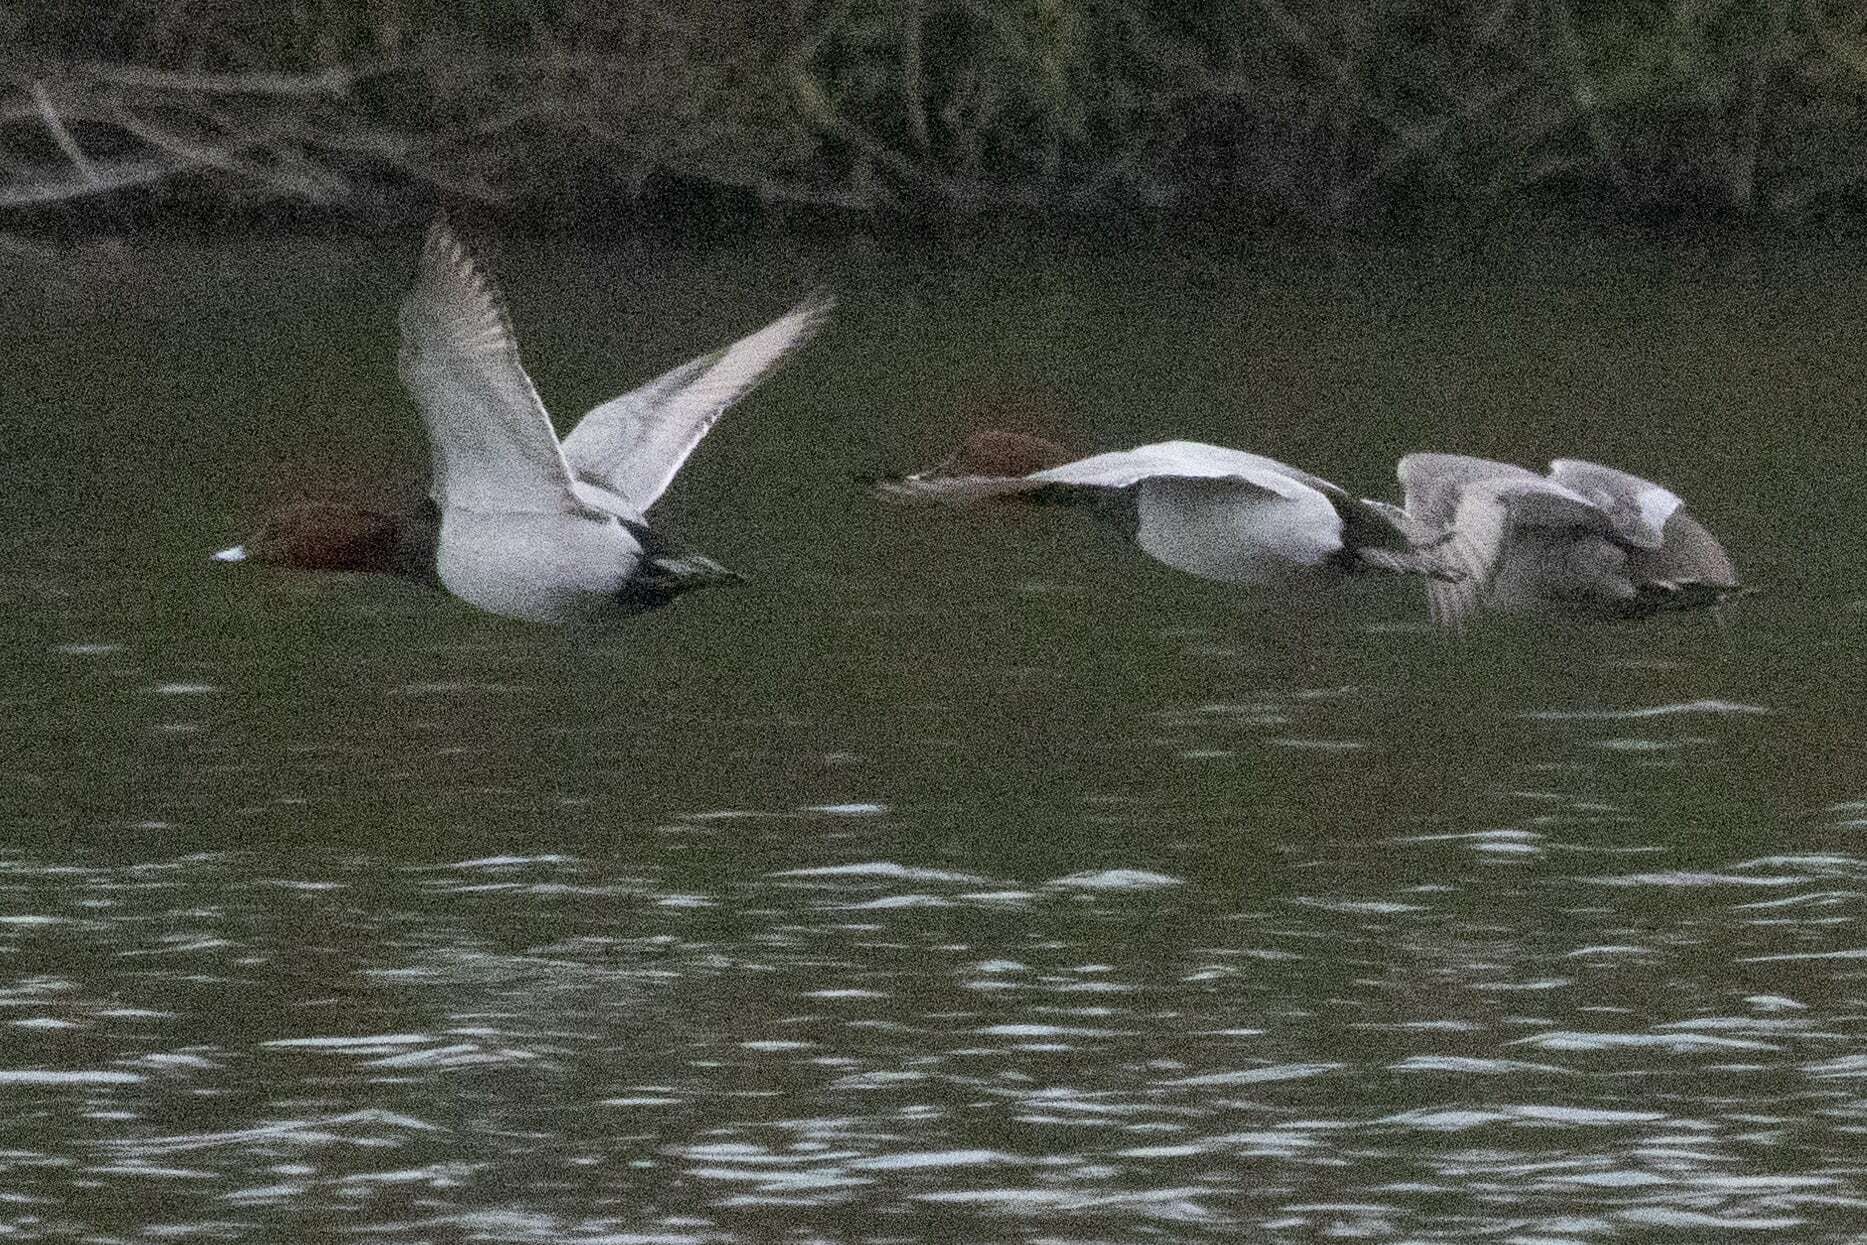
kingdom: Animalia
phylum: Chordata
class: Aves
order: Anseriformes
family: Anatidae
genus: Aythya
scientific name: Aythya ferina
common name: Common pochard
